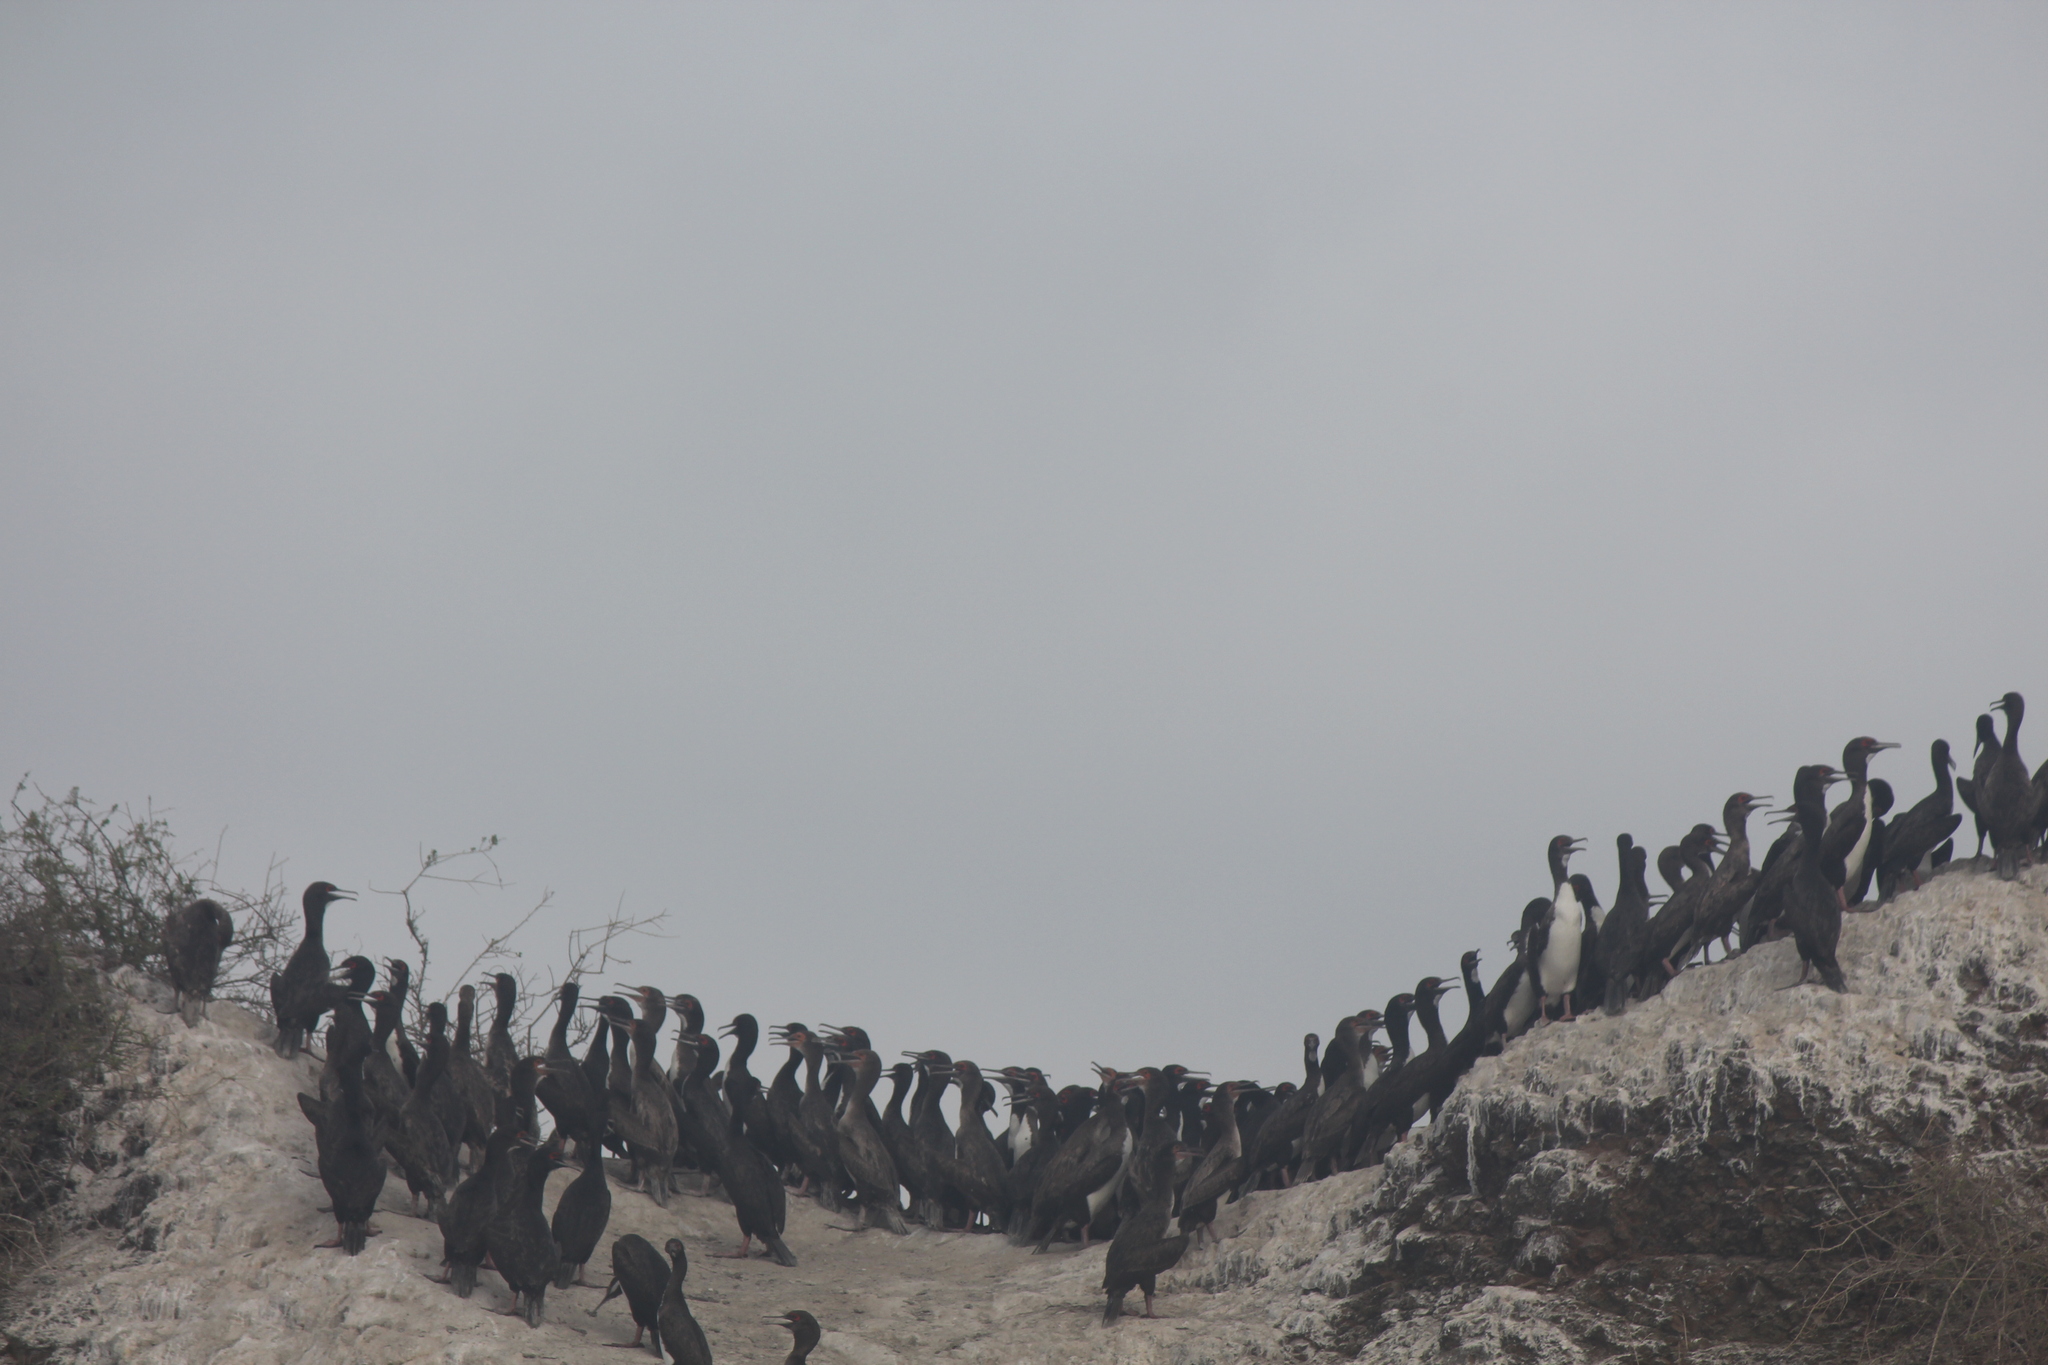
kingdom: Animalia
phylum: Chordata
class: Aves
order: Suliformes
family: Phalacrocoracidae
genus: Leucocarbo
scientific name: Leucocarbo bougainvillii
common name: Guanay cormorant
